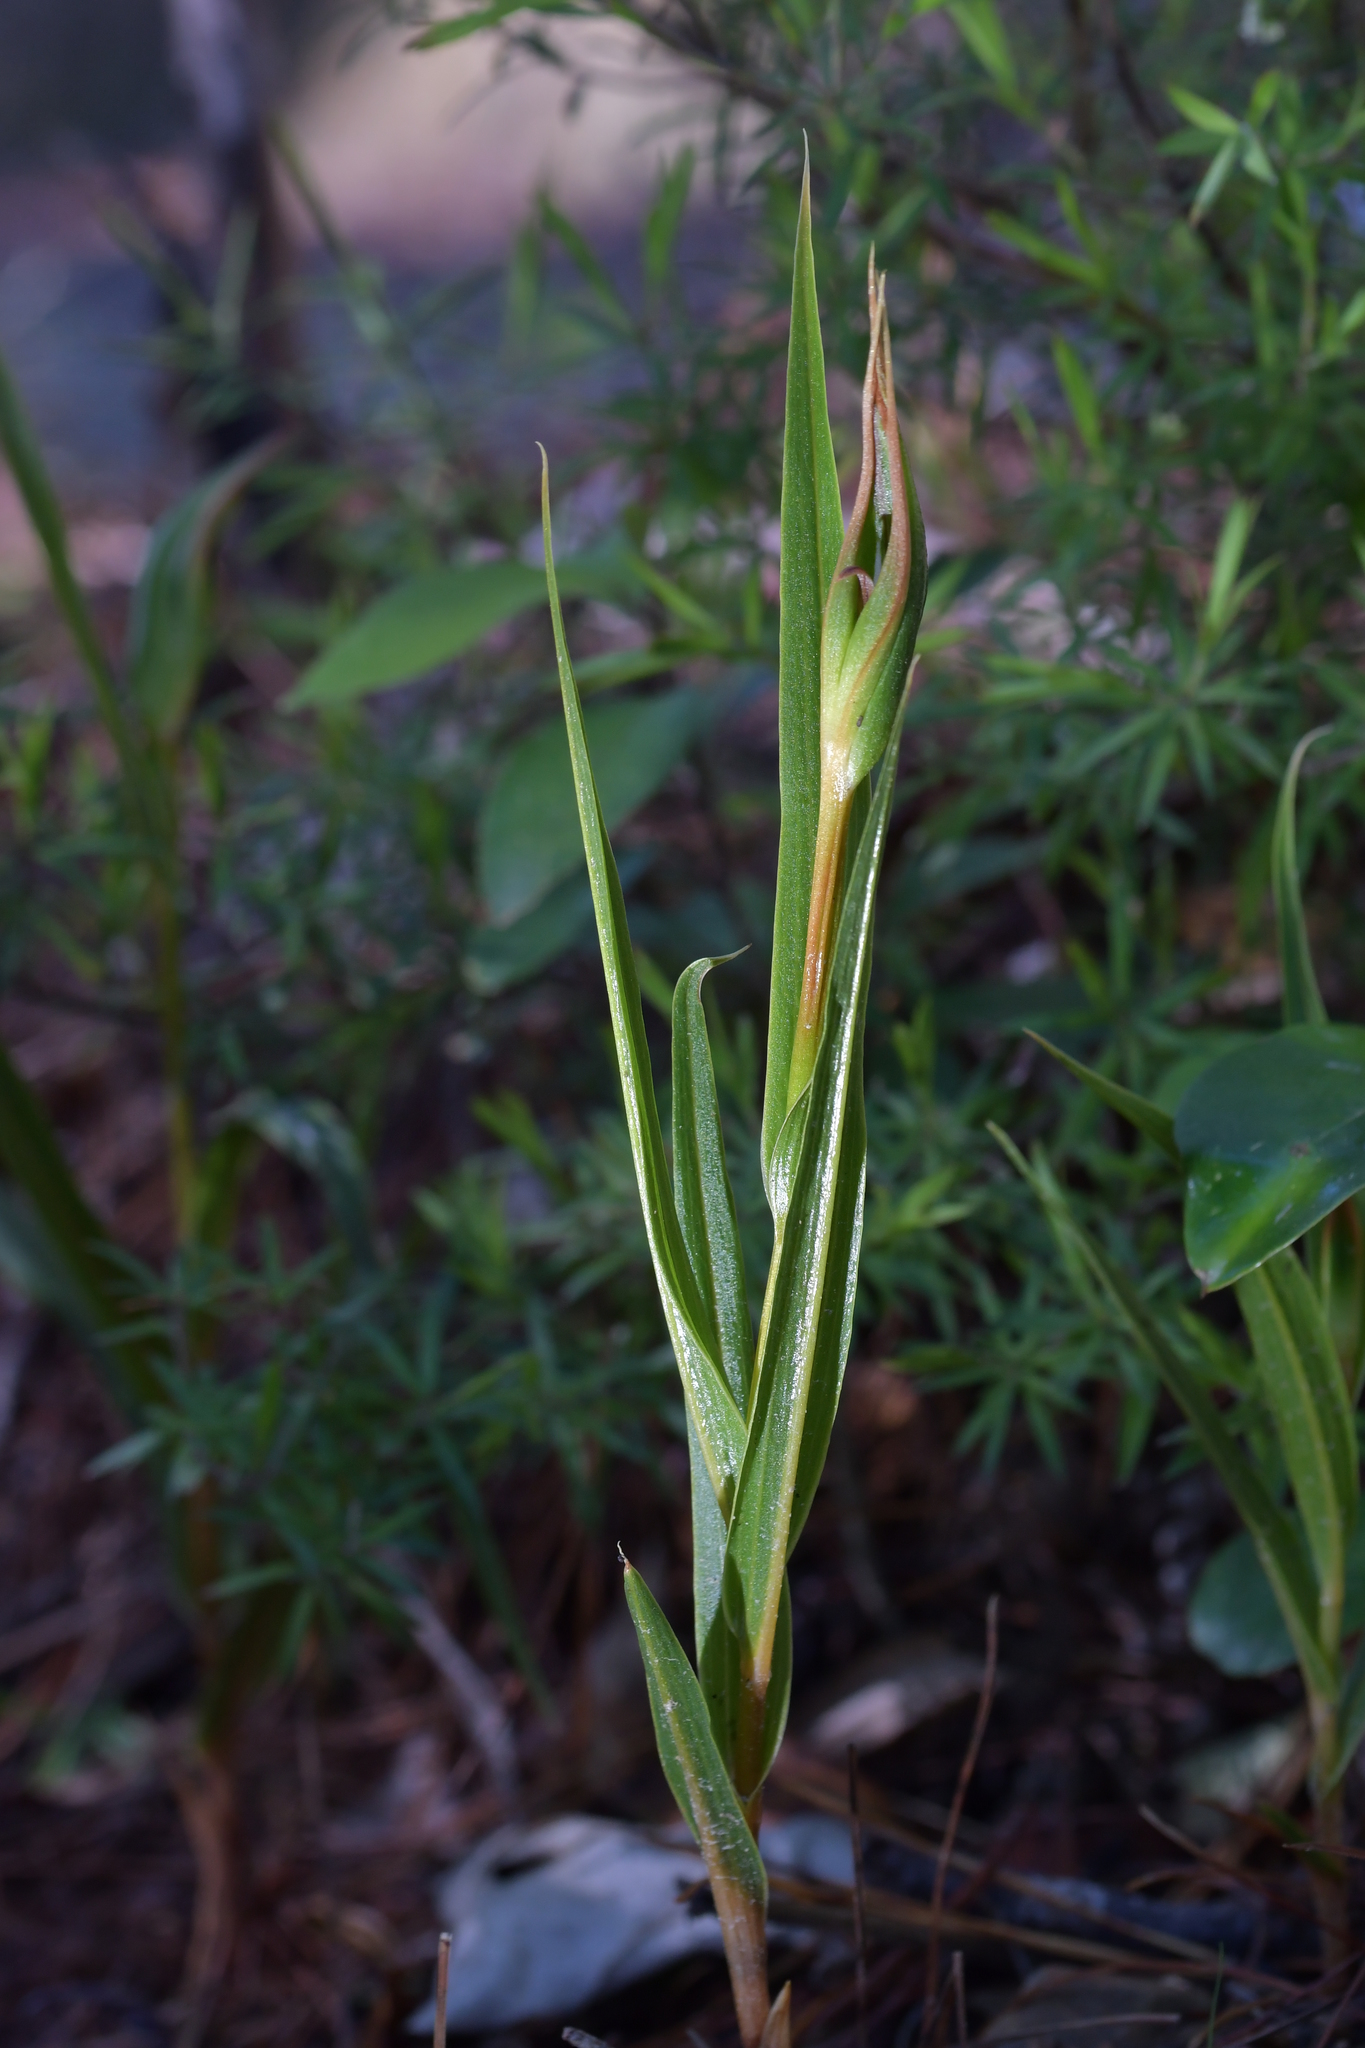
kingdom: Plantae
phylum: Tracheophyta
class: Liliopsida
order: Asparagales
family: Orchidaceae
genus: Pterostylis
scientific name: Pterostylis cardiostigma
